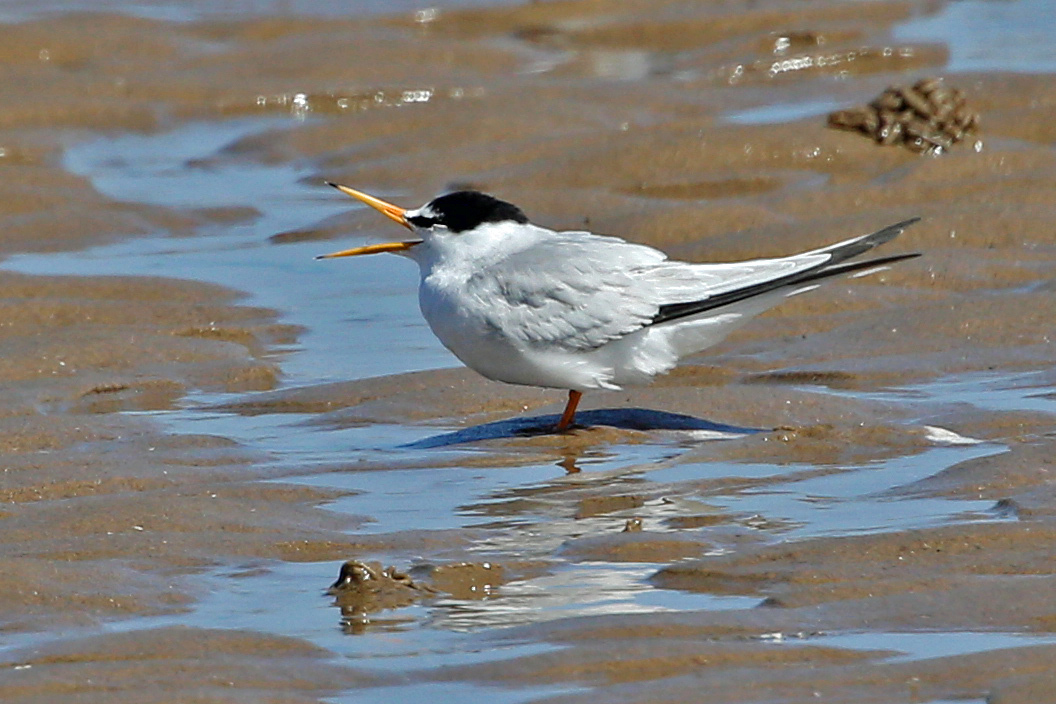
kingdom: Animalia
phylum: Chordata
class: Aves
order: Charadriiformes
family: Laridae
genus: Sternula
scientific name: Sternula albifrons
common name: Little tern
